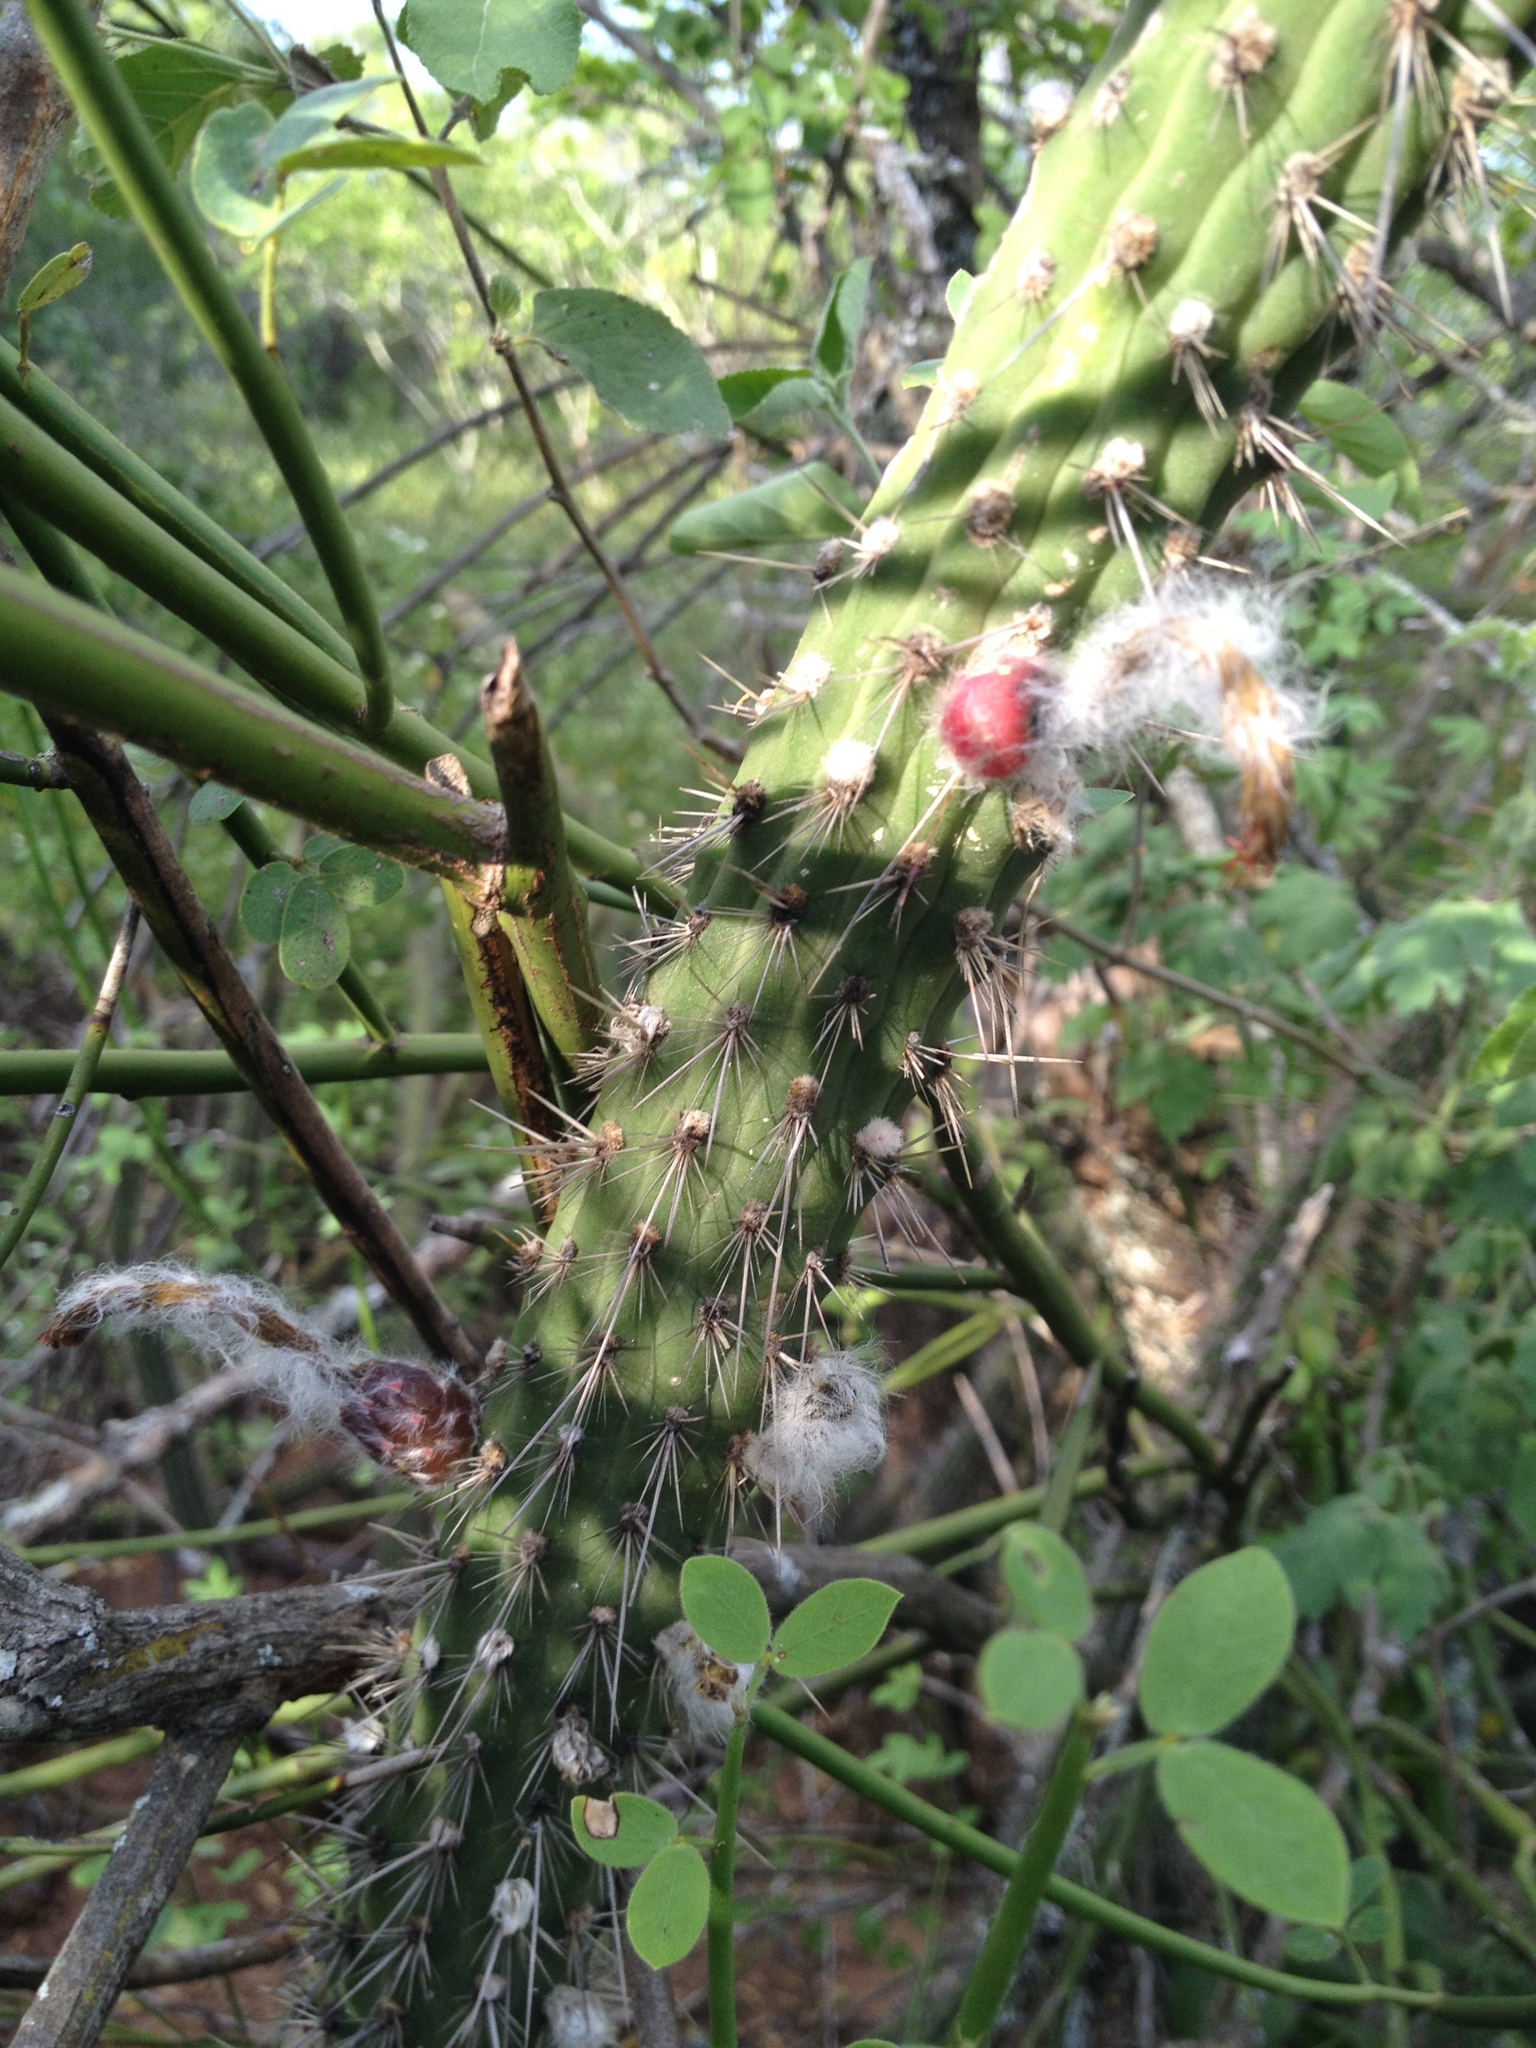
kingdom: Plantae
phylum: Tracheophyta
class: Magnoliopsida
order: Caryophyllales
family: Cactaceae
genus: Cleistocactus
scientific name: Cleistocactus baumannii
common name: Scarlet-bugler
